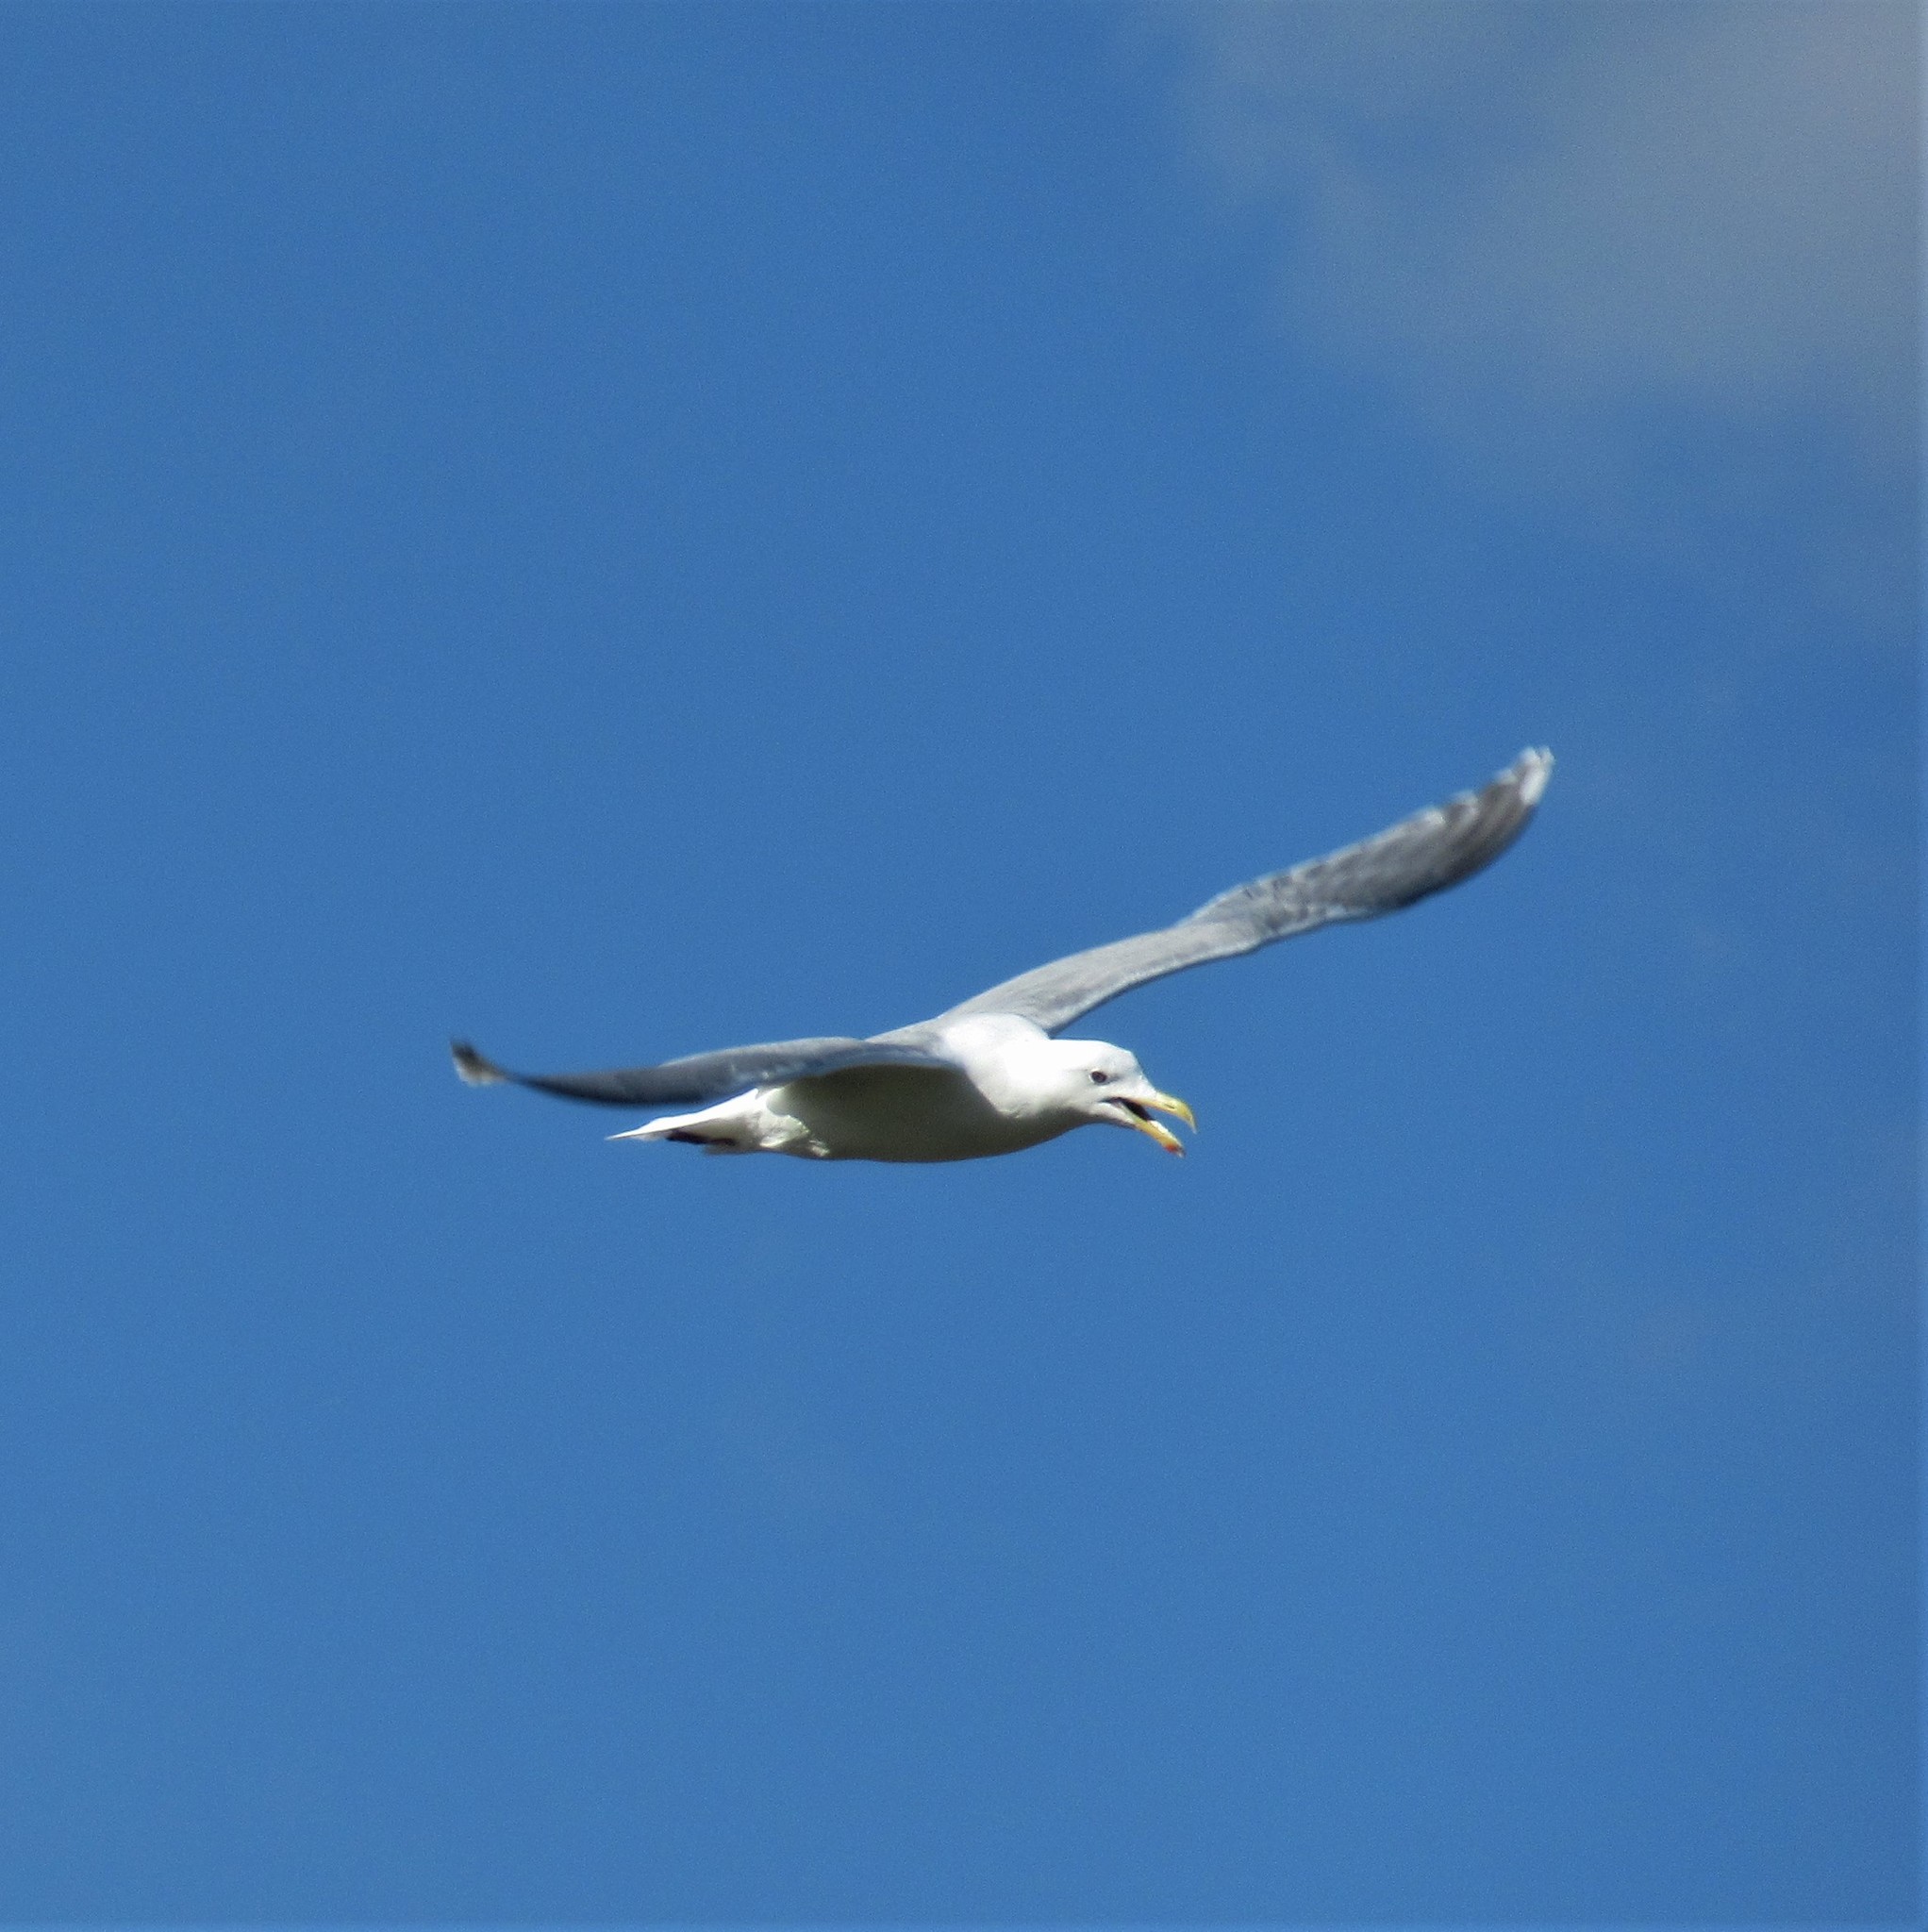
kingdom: Animalia
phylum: Chordata
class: Aves
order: Charadriiformes
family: Laridae
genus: Larus
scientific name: Larus
